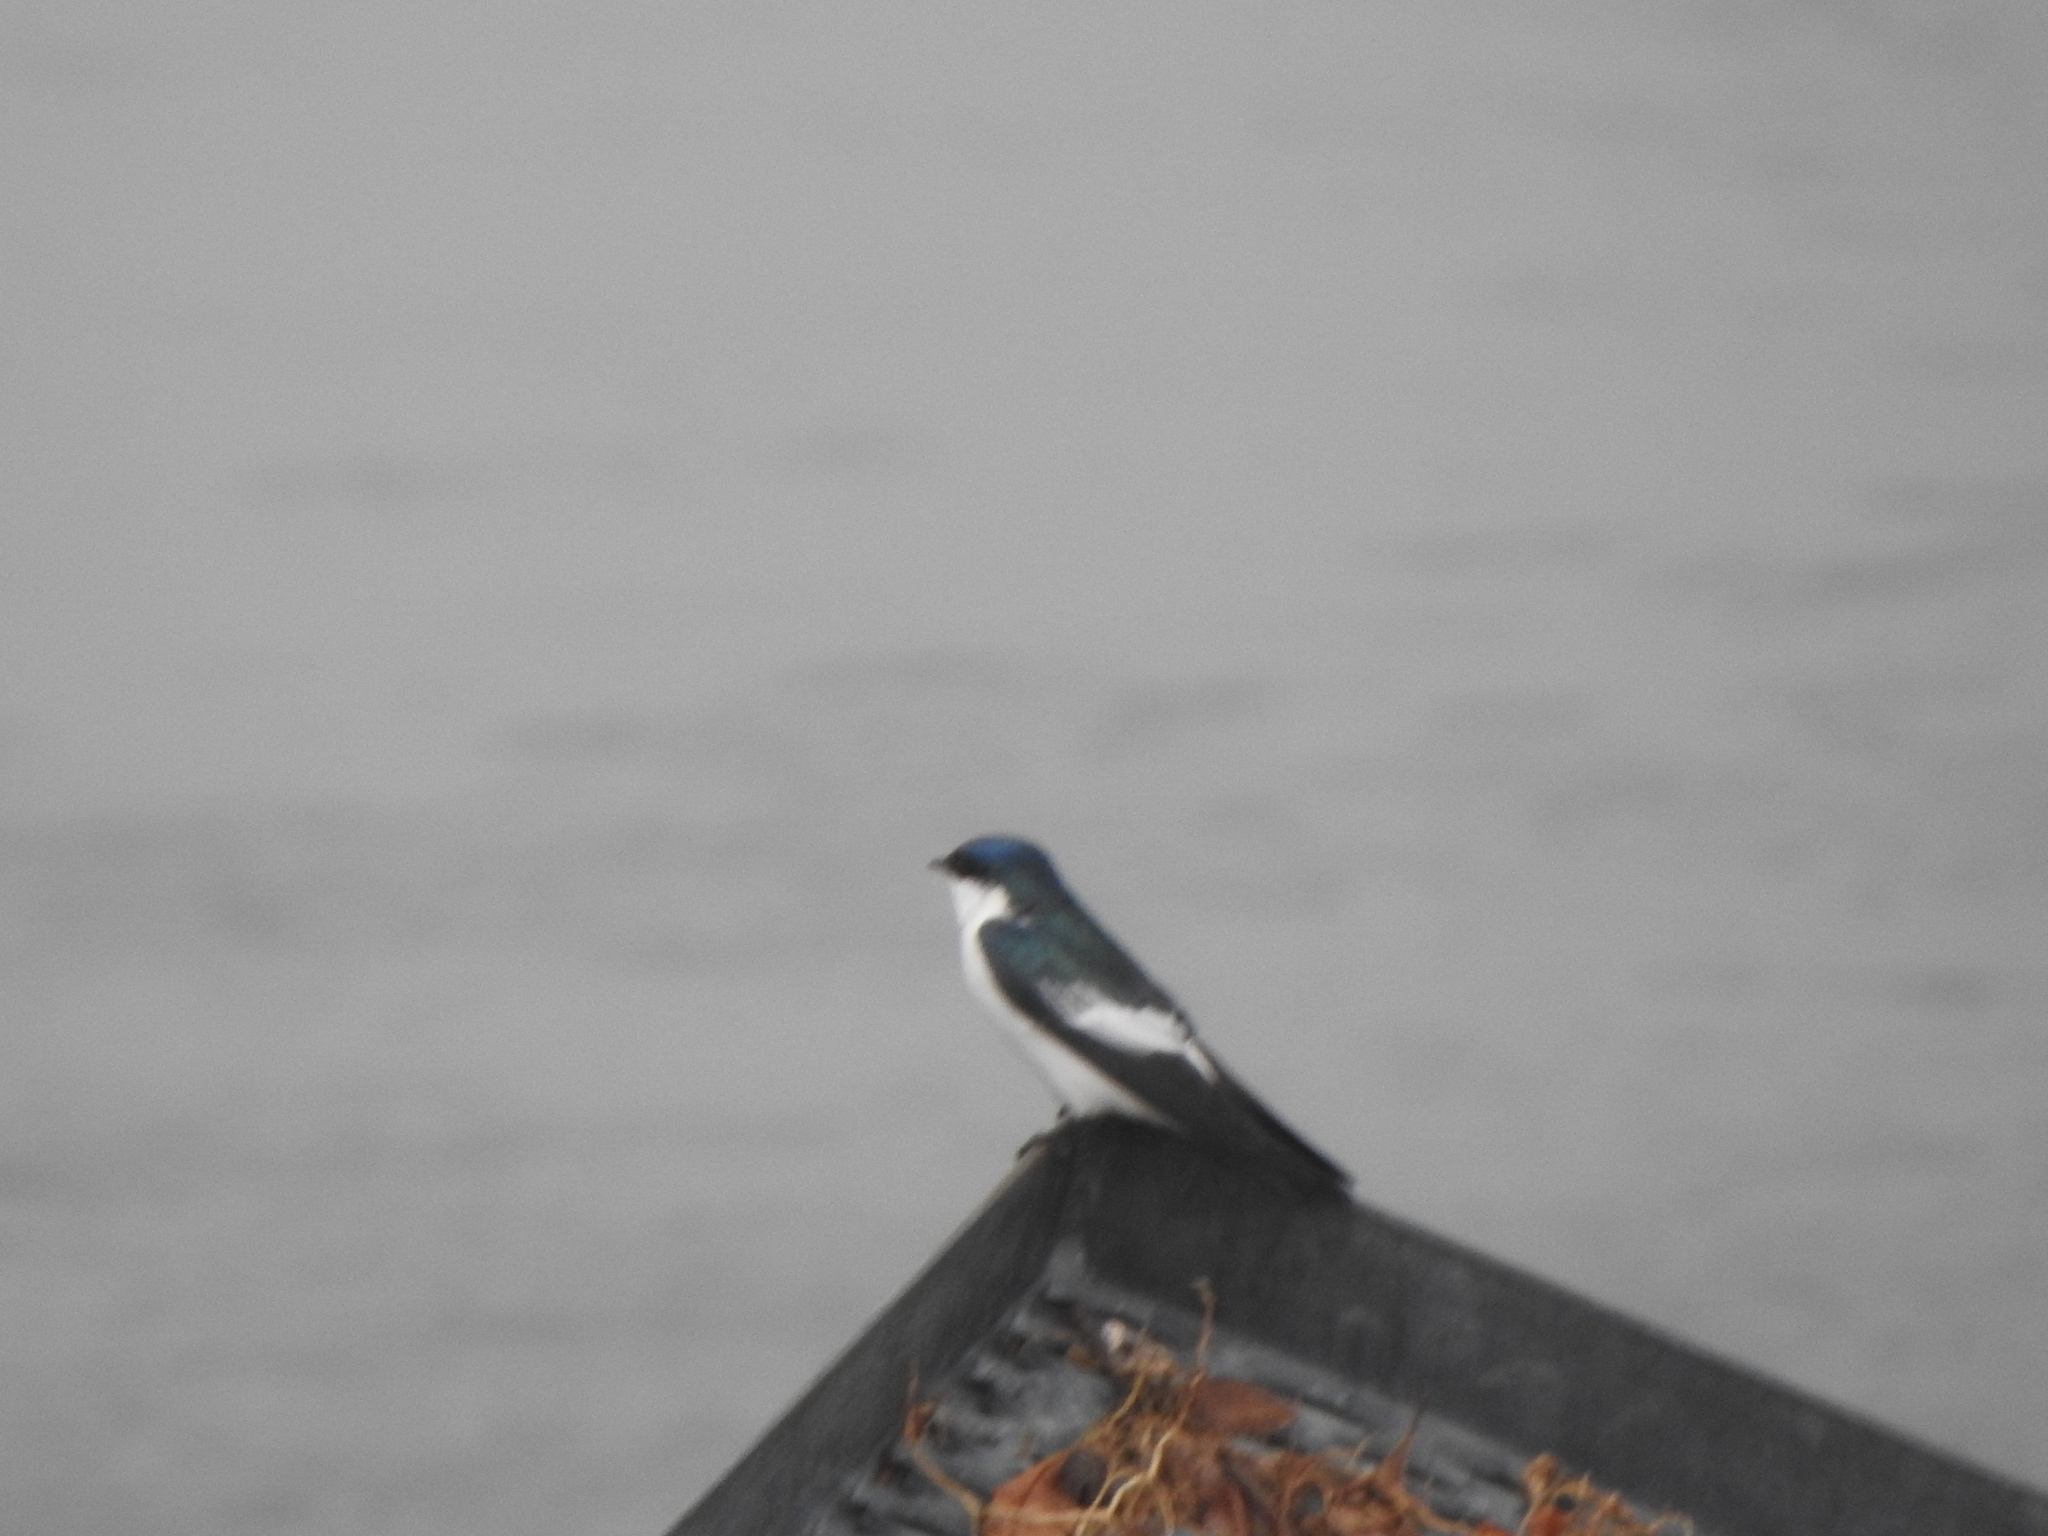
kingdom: Animalia
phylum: Chordata
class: Aves
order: Passeriformes
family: Hirundinidae
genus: Tachycineta
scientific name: Tachycineta albiventer
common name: White-winged swallow
